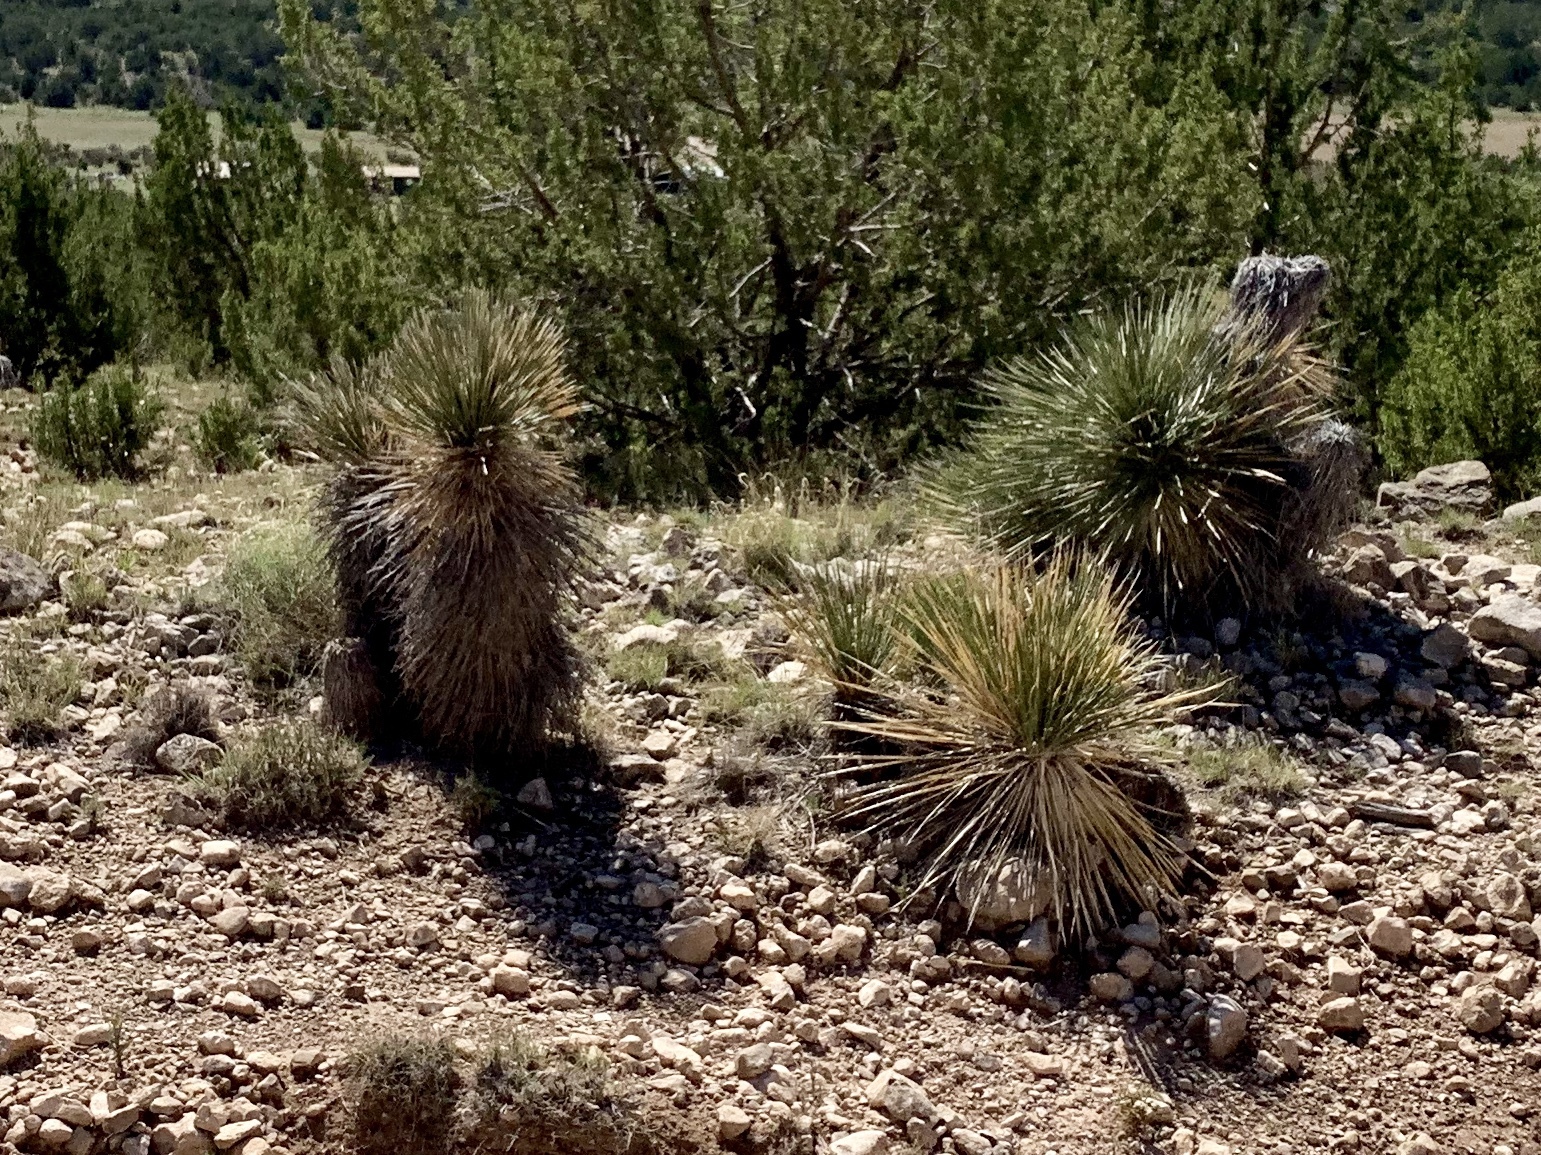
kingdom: Plantae
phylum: Tracheophyta
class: Liliopsida
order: Asparagales
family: Asparagaceae
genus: Yucca
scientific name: Yucca elata
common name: Palmella
